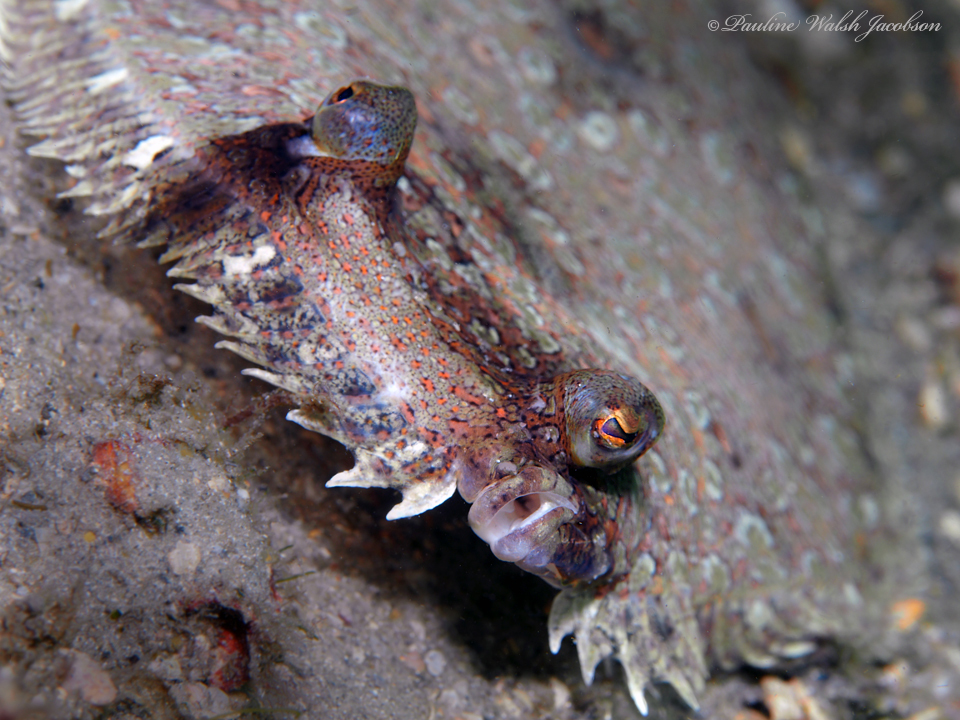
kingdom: Animalia
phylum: Chordata
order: Pleuronectiformes
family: Bothidae
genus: Bothus
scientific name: Bothus ocellatus
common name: Eyed flounder
